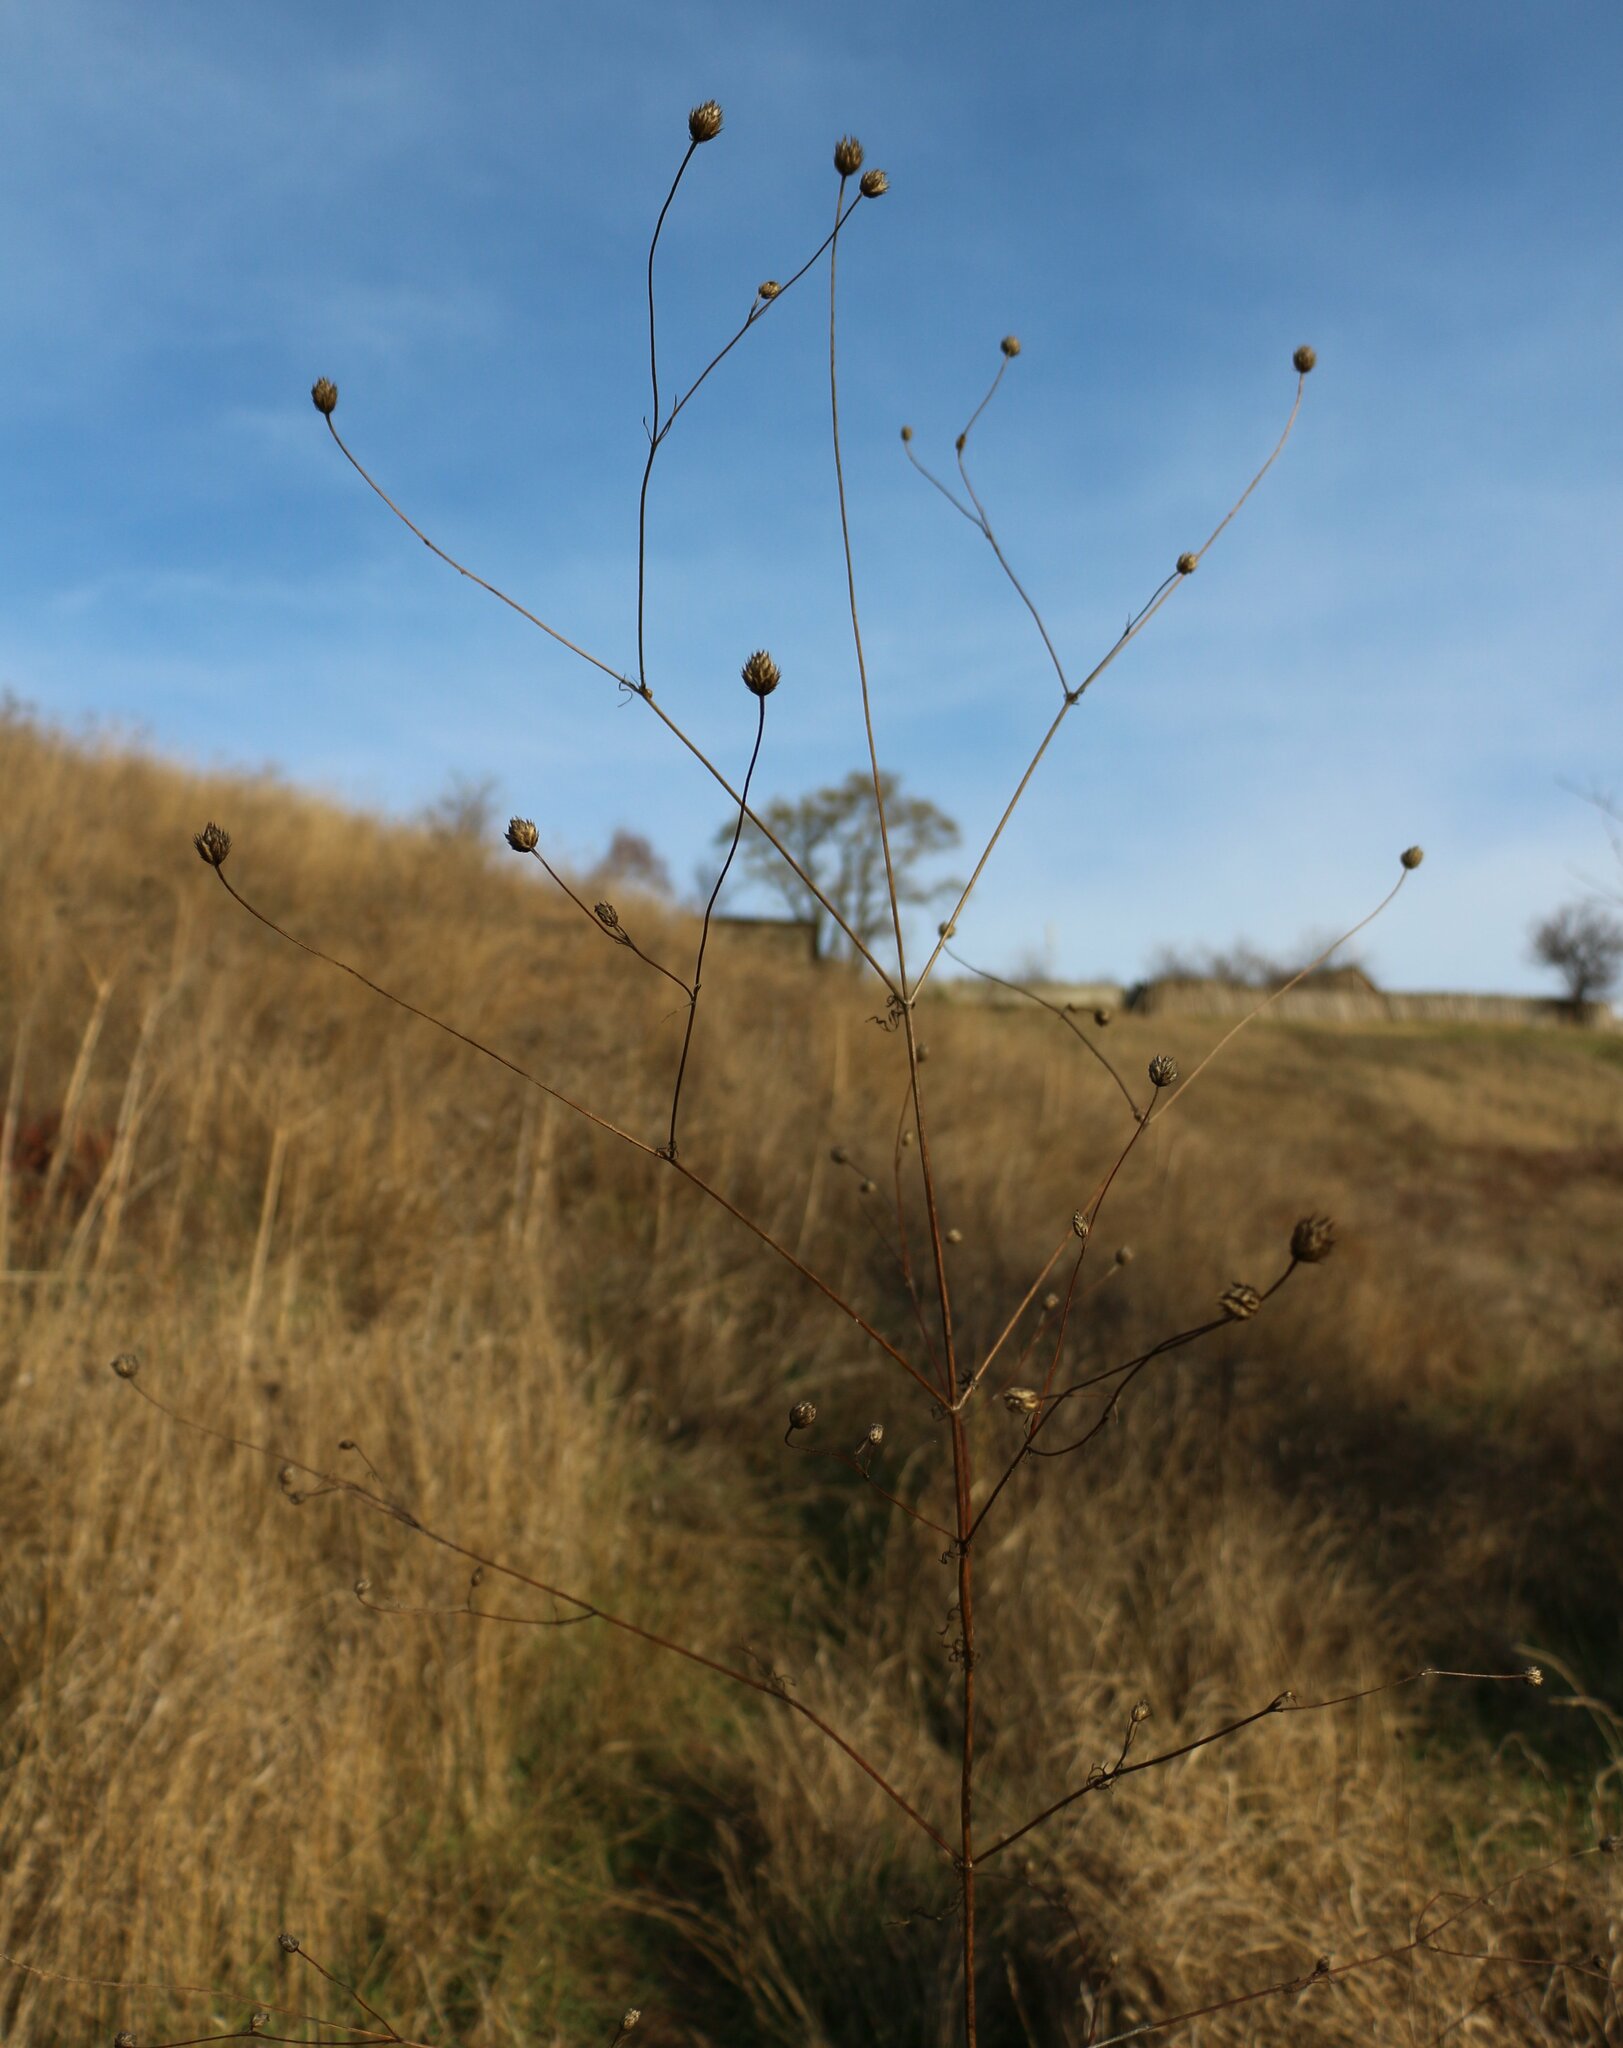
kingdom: Plantae
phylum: Tracheophyta
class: Magnoliopsida
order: Dipsacales
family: Caprifoliaceae
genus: Cephalaria
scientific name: Cephalaria transsylvanica
